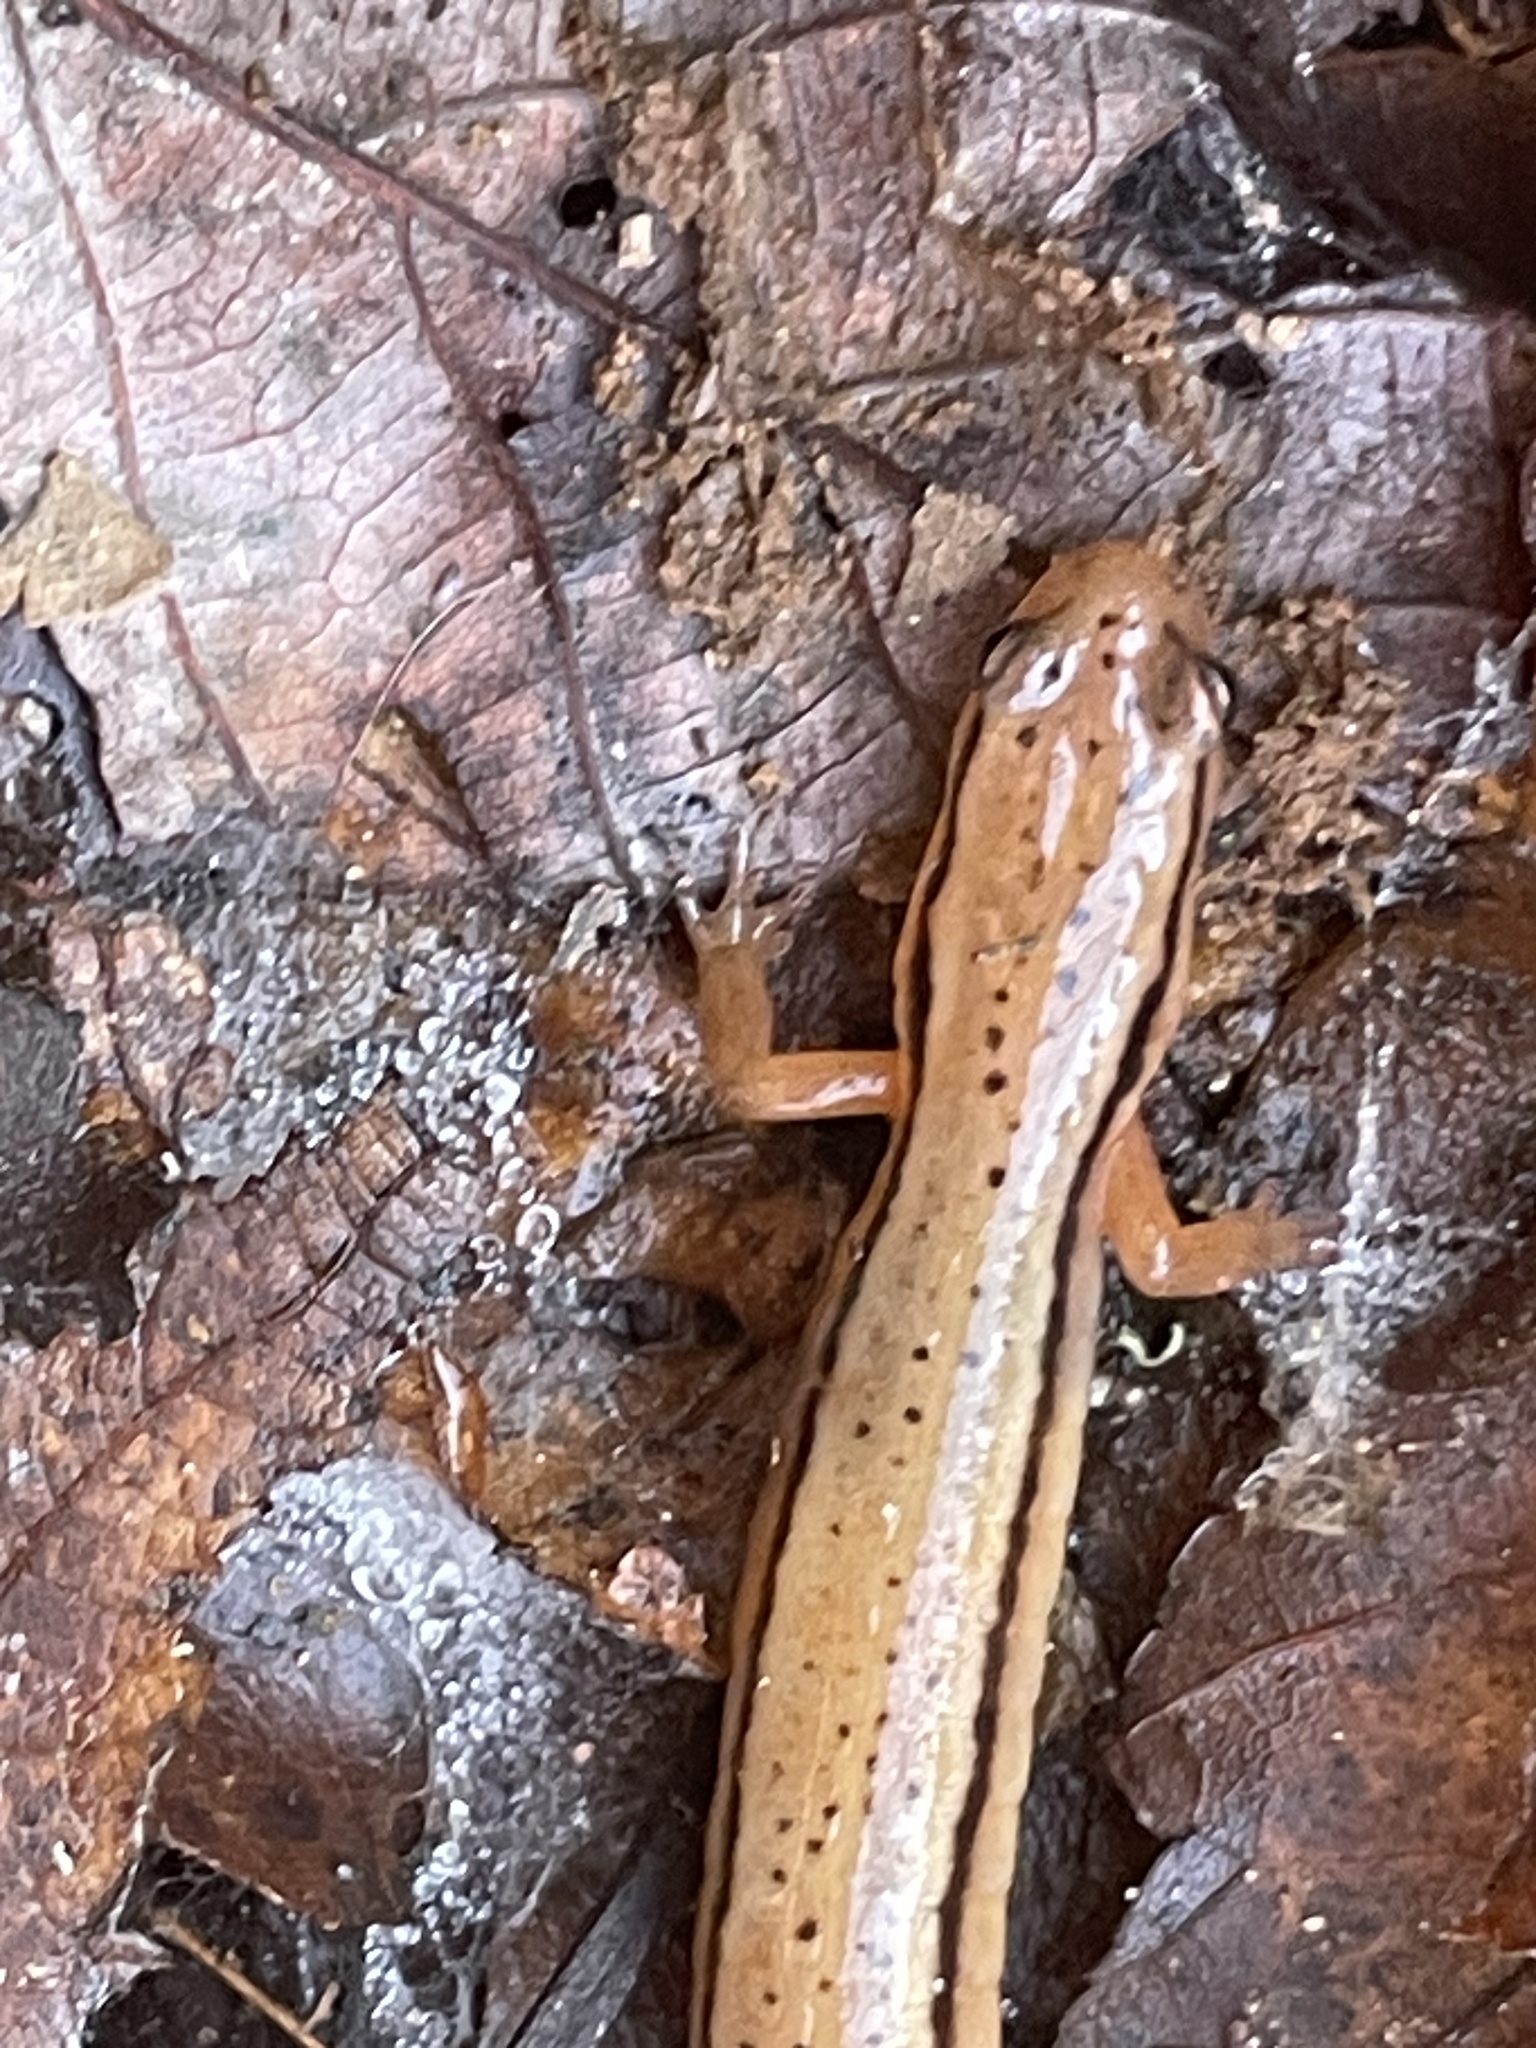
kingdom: Animalia
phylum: Chordata
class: Amphibia
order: Caudata
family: Plethodontidae
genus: Eurycea
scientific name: Eurycea wilderae
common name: Blue ridge two-lined salamander
